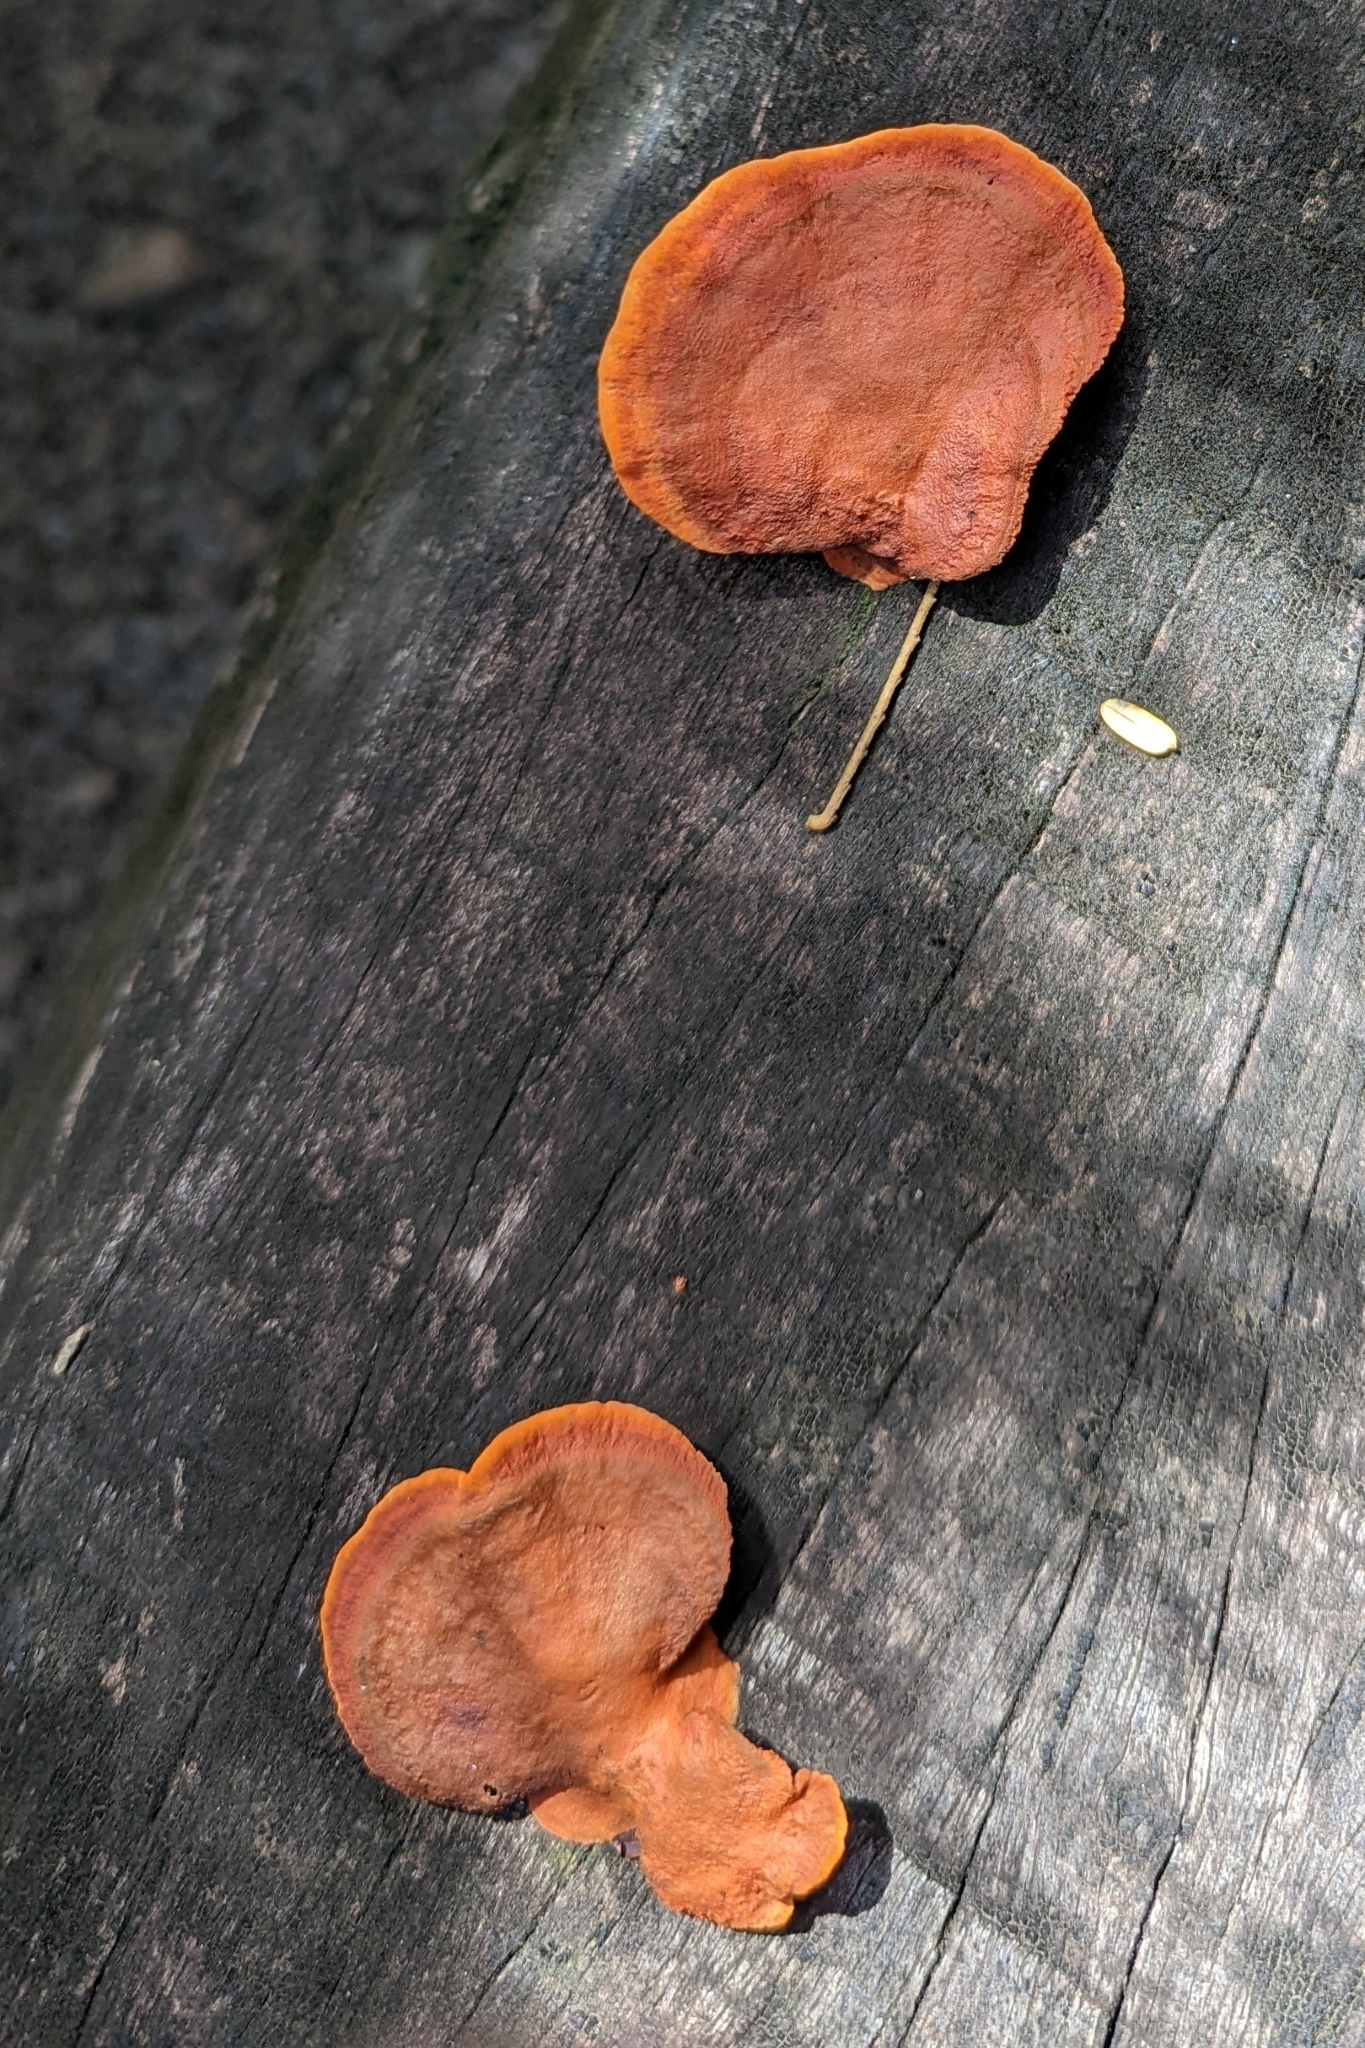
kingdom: Fungi
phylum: Basidiomycota
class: Agaricomycetes
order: Polyporales
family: Polyporaceae
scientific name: Polyporaceae
